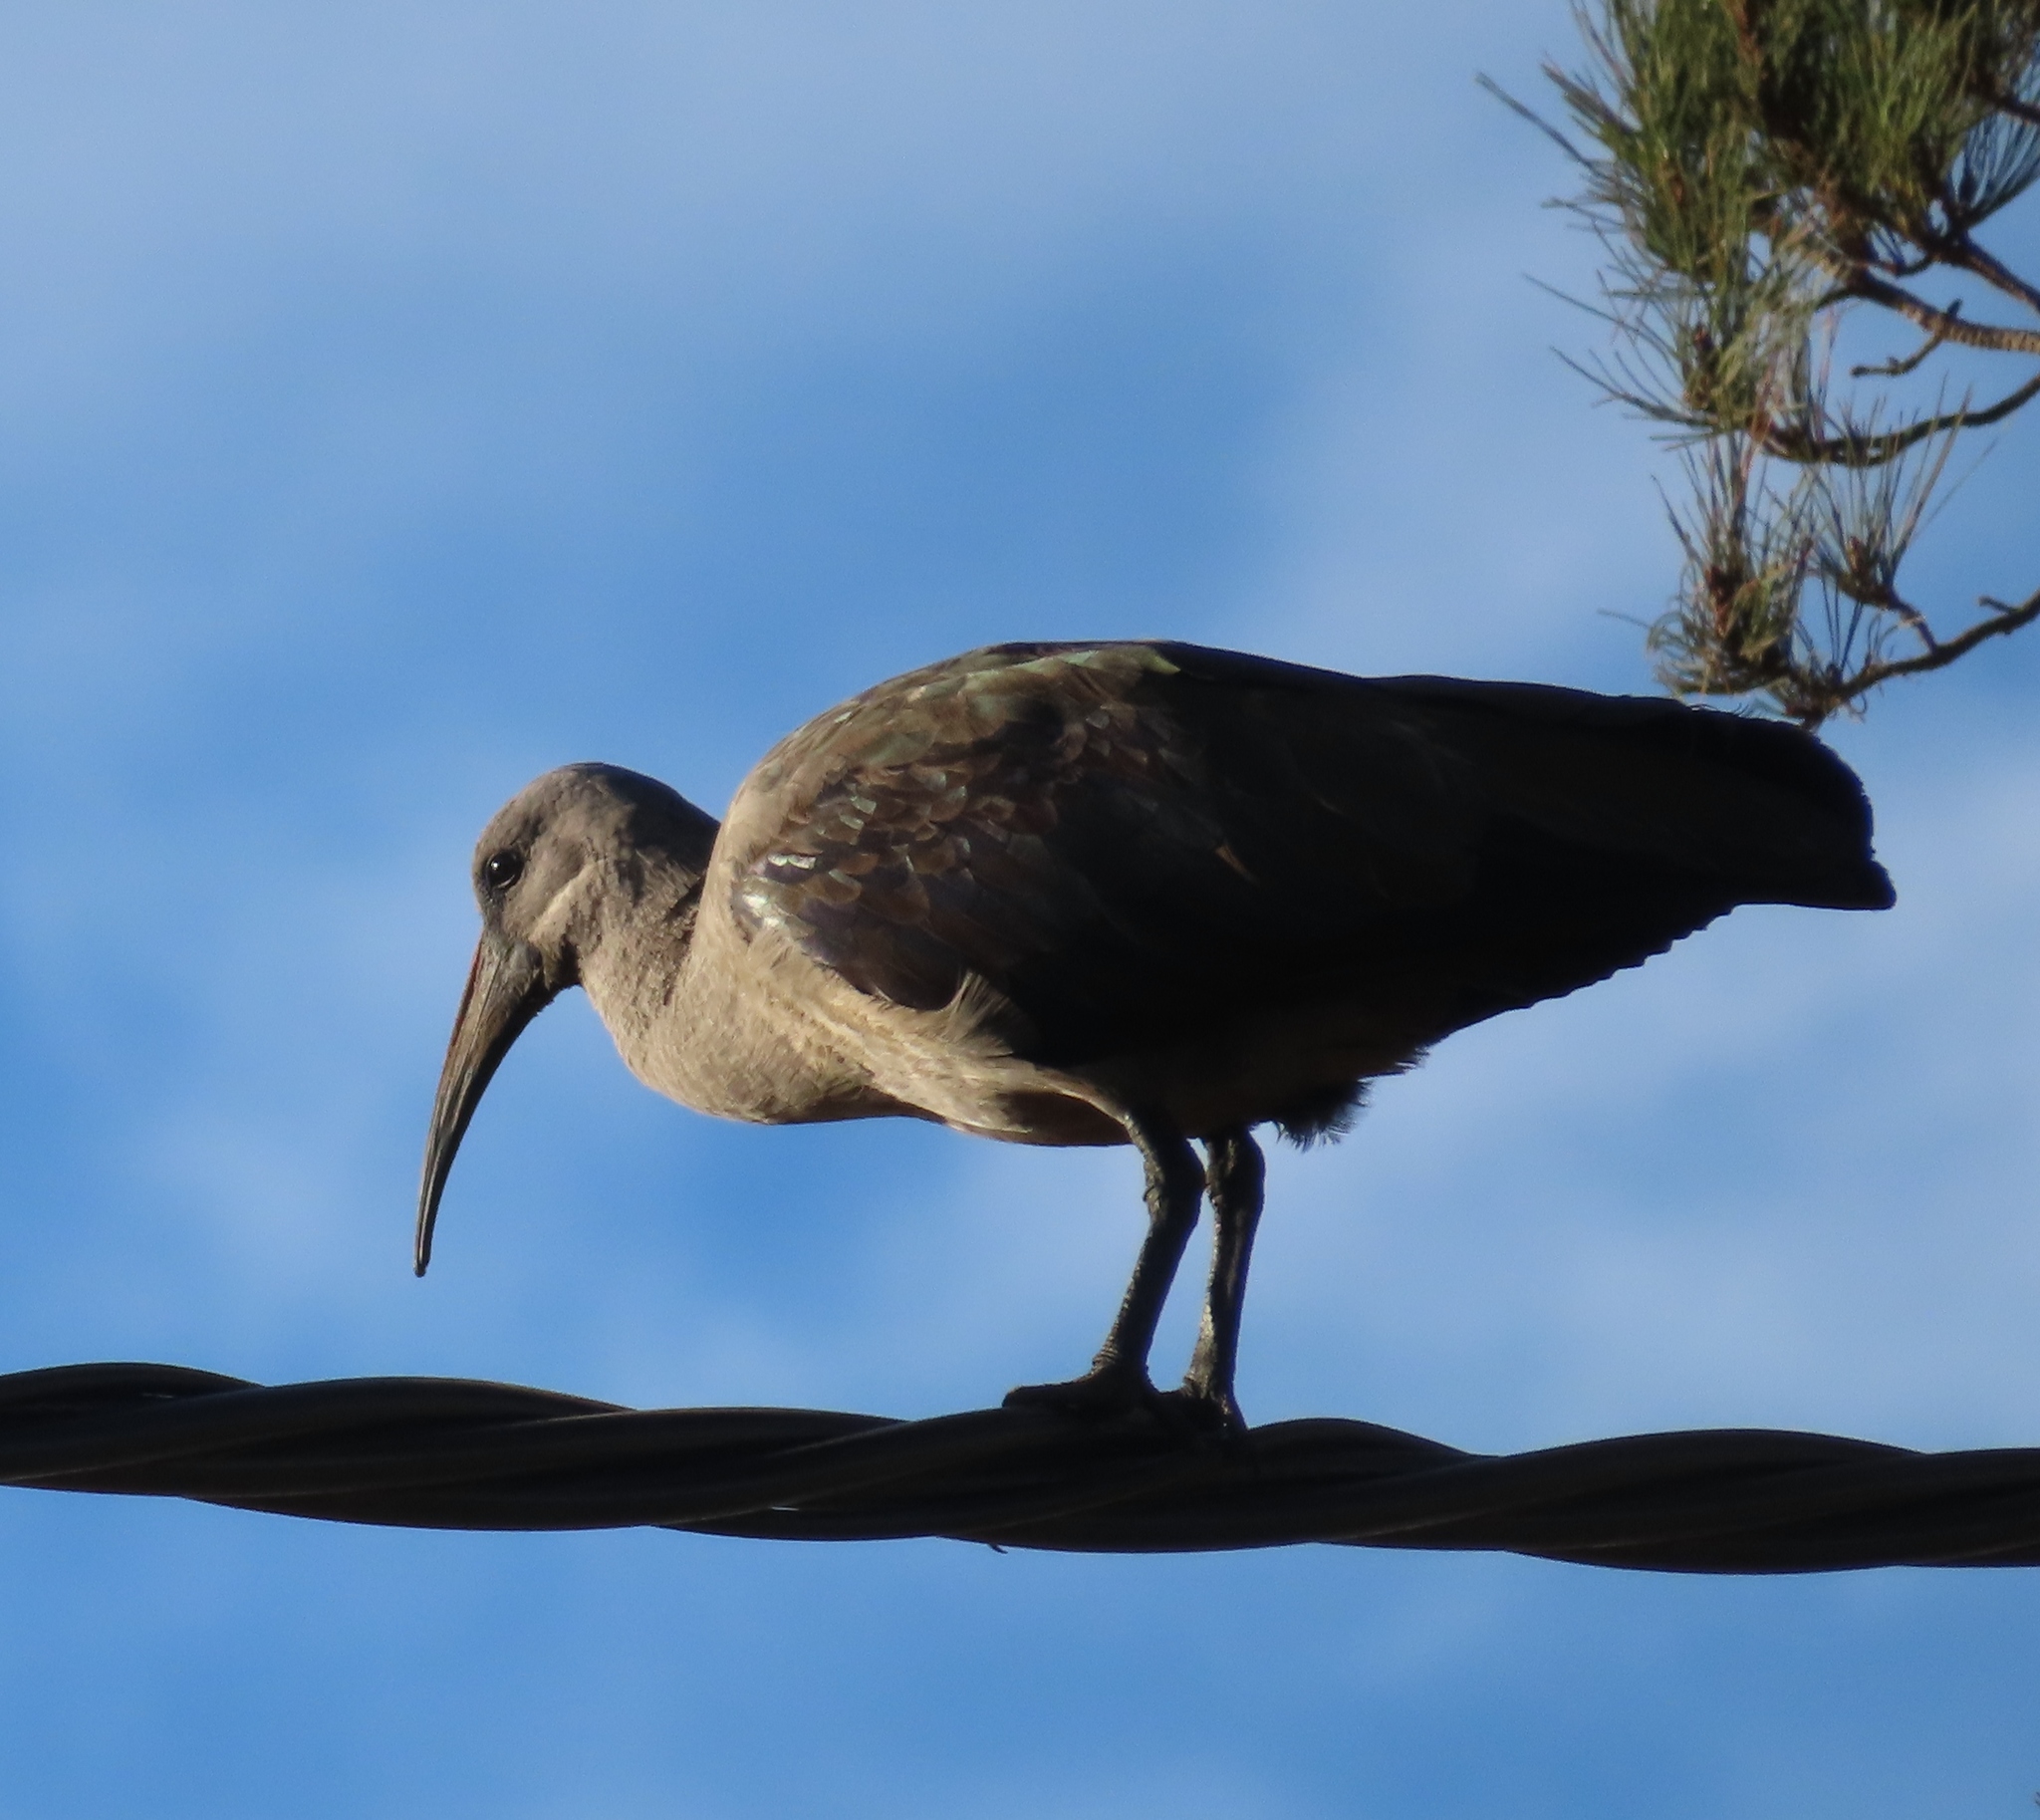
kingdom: Animalia
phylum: Chordata
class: Aves
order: Pelecaniformes
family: Threskiornithidae
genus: Bostrychia
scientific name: Bostrychia hagedash
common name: Hadada ibis
